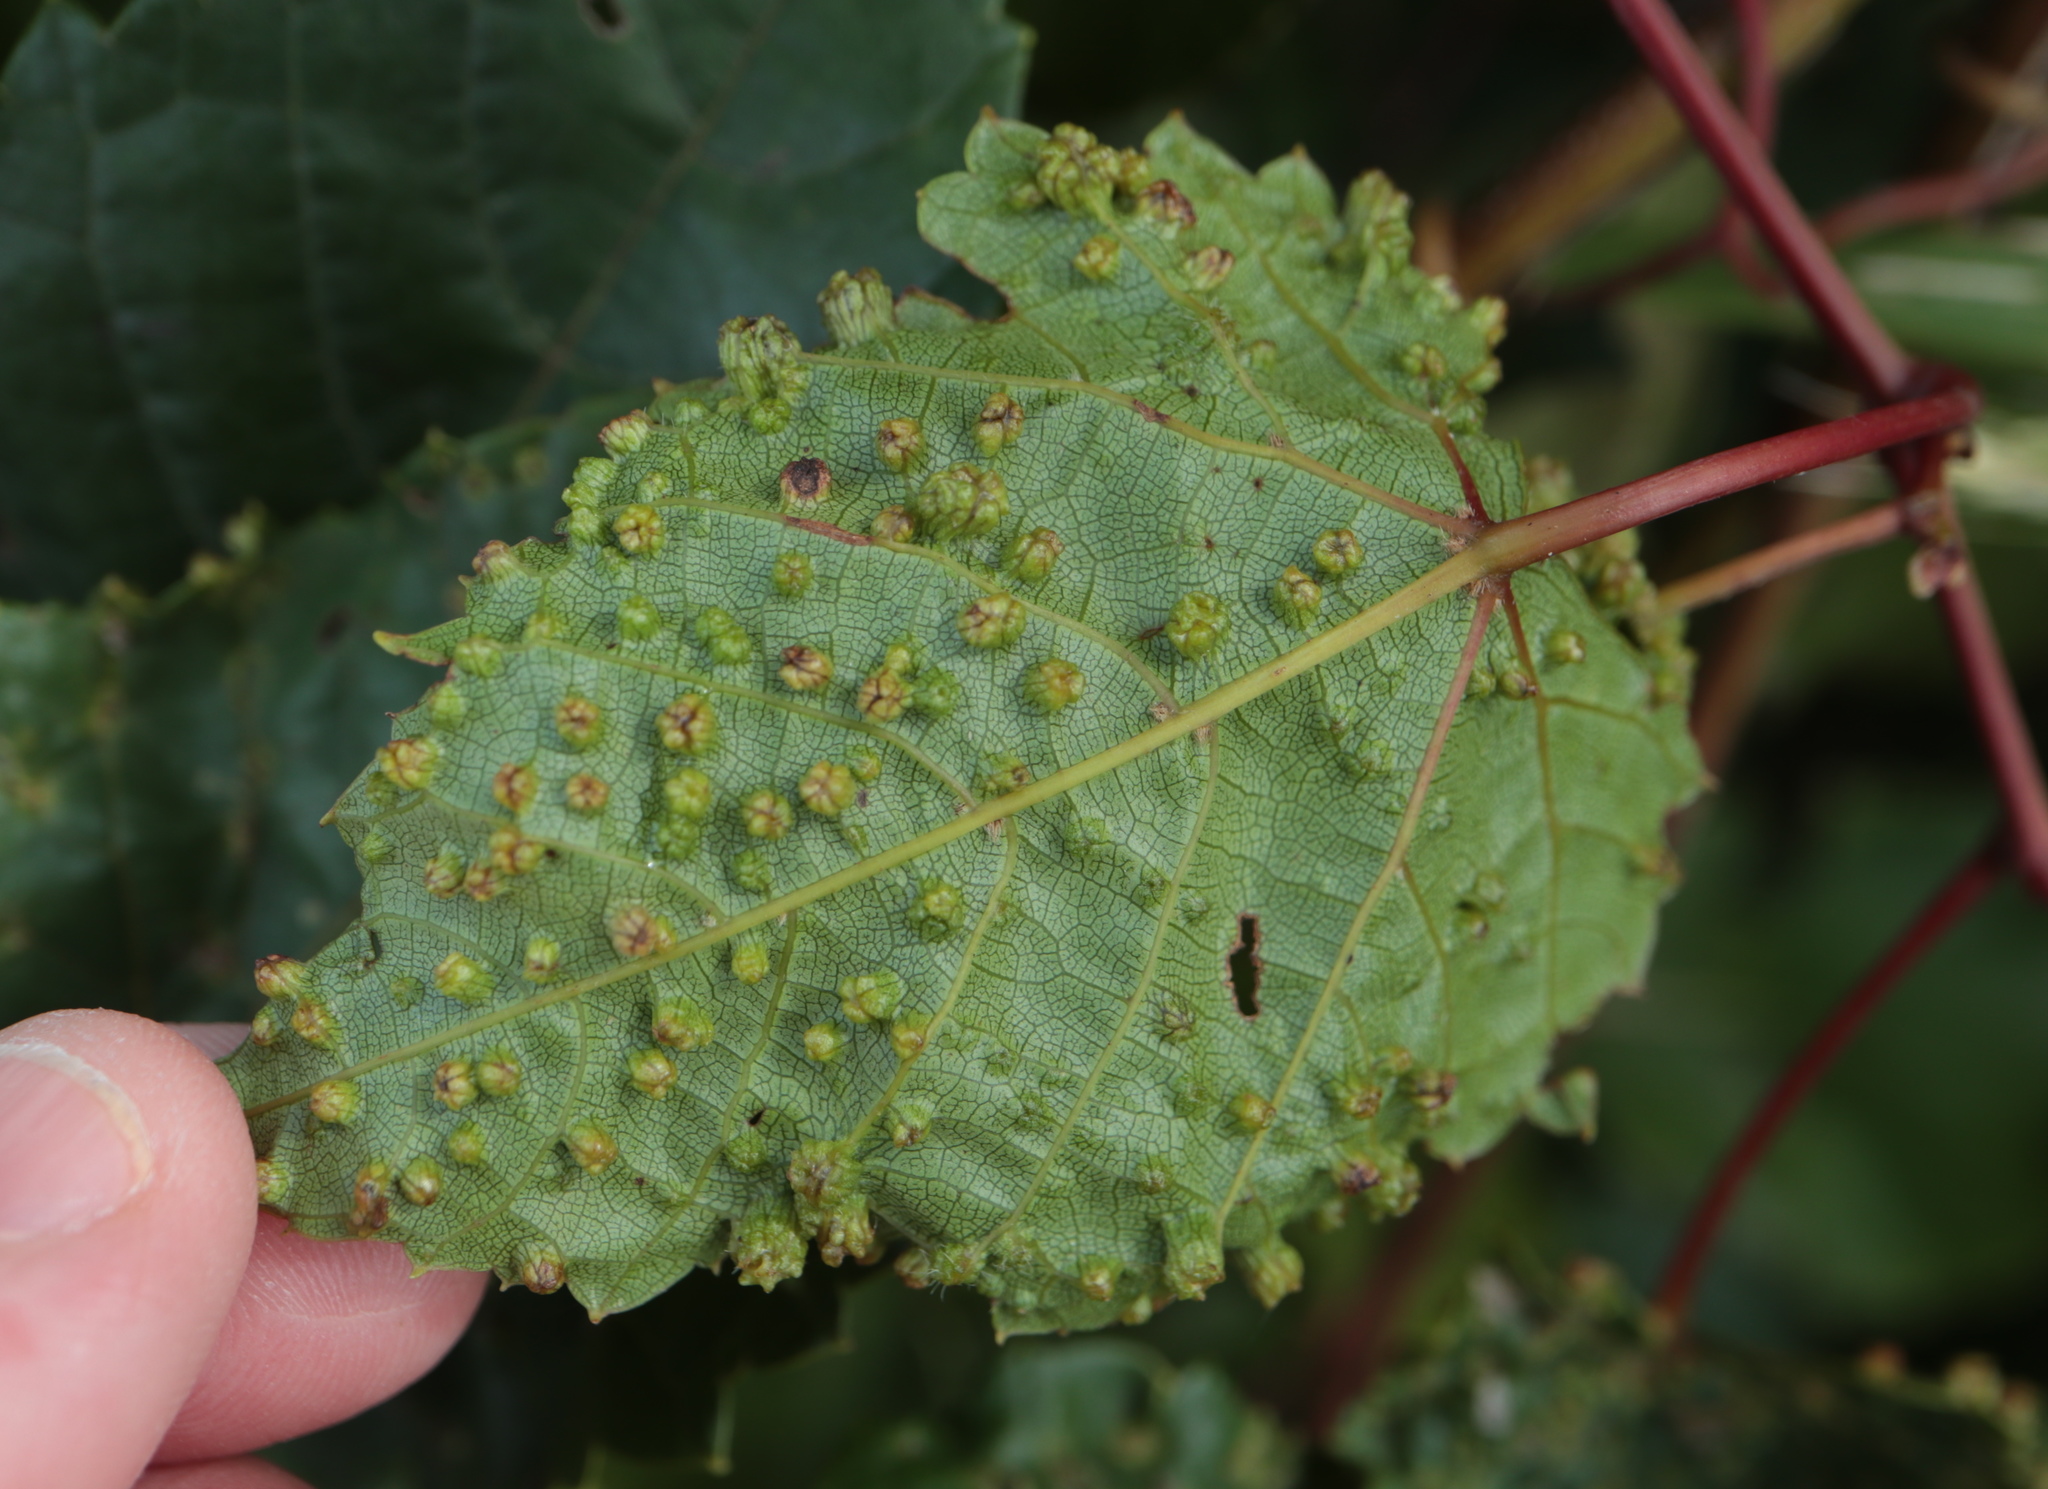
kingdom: Animalia
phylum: Arthropoda
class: Insecta
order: Hemiptera
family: Phylloxeridae
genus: Daktulosphaira
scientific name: Daktulosphaira vitifoliae
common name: Grape phylloxera
